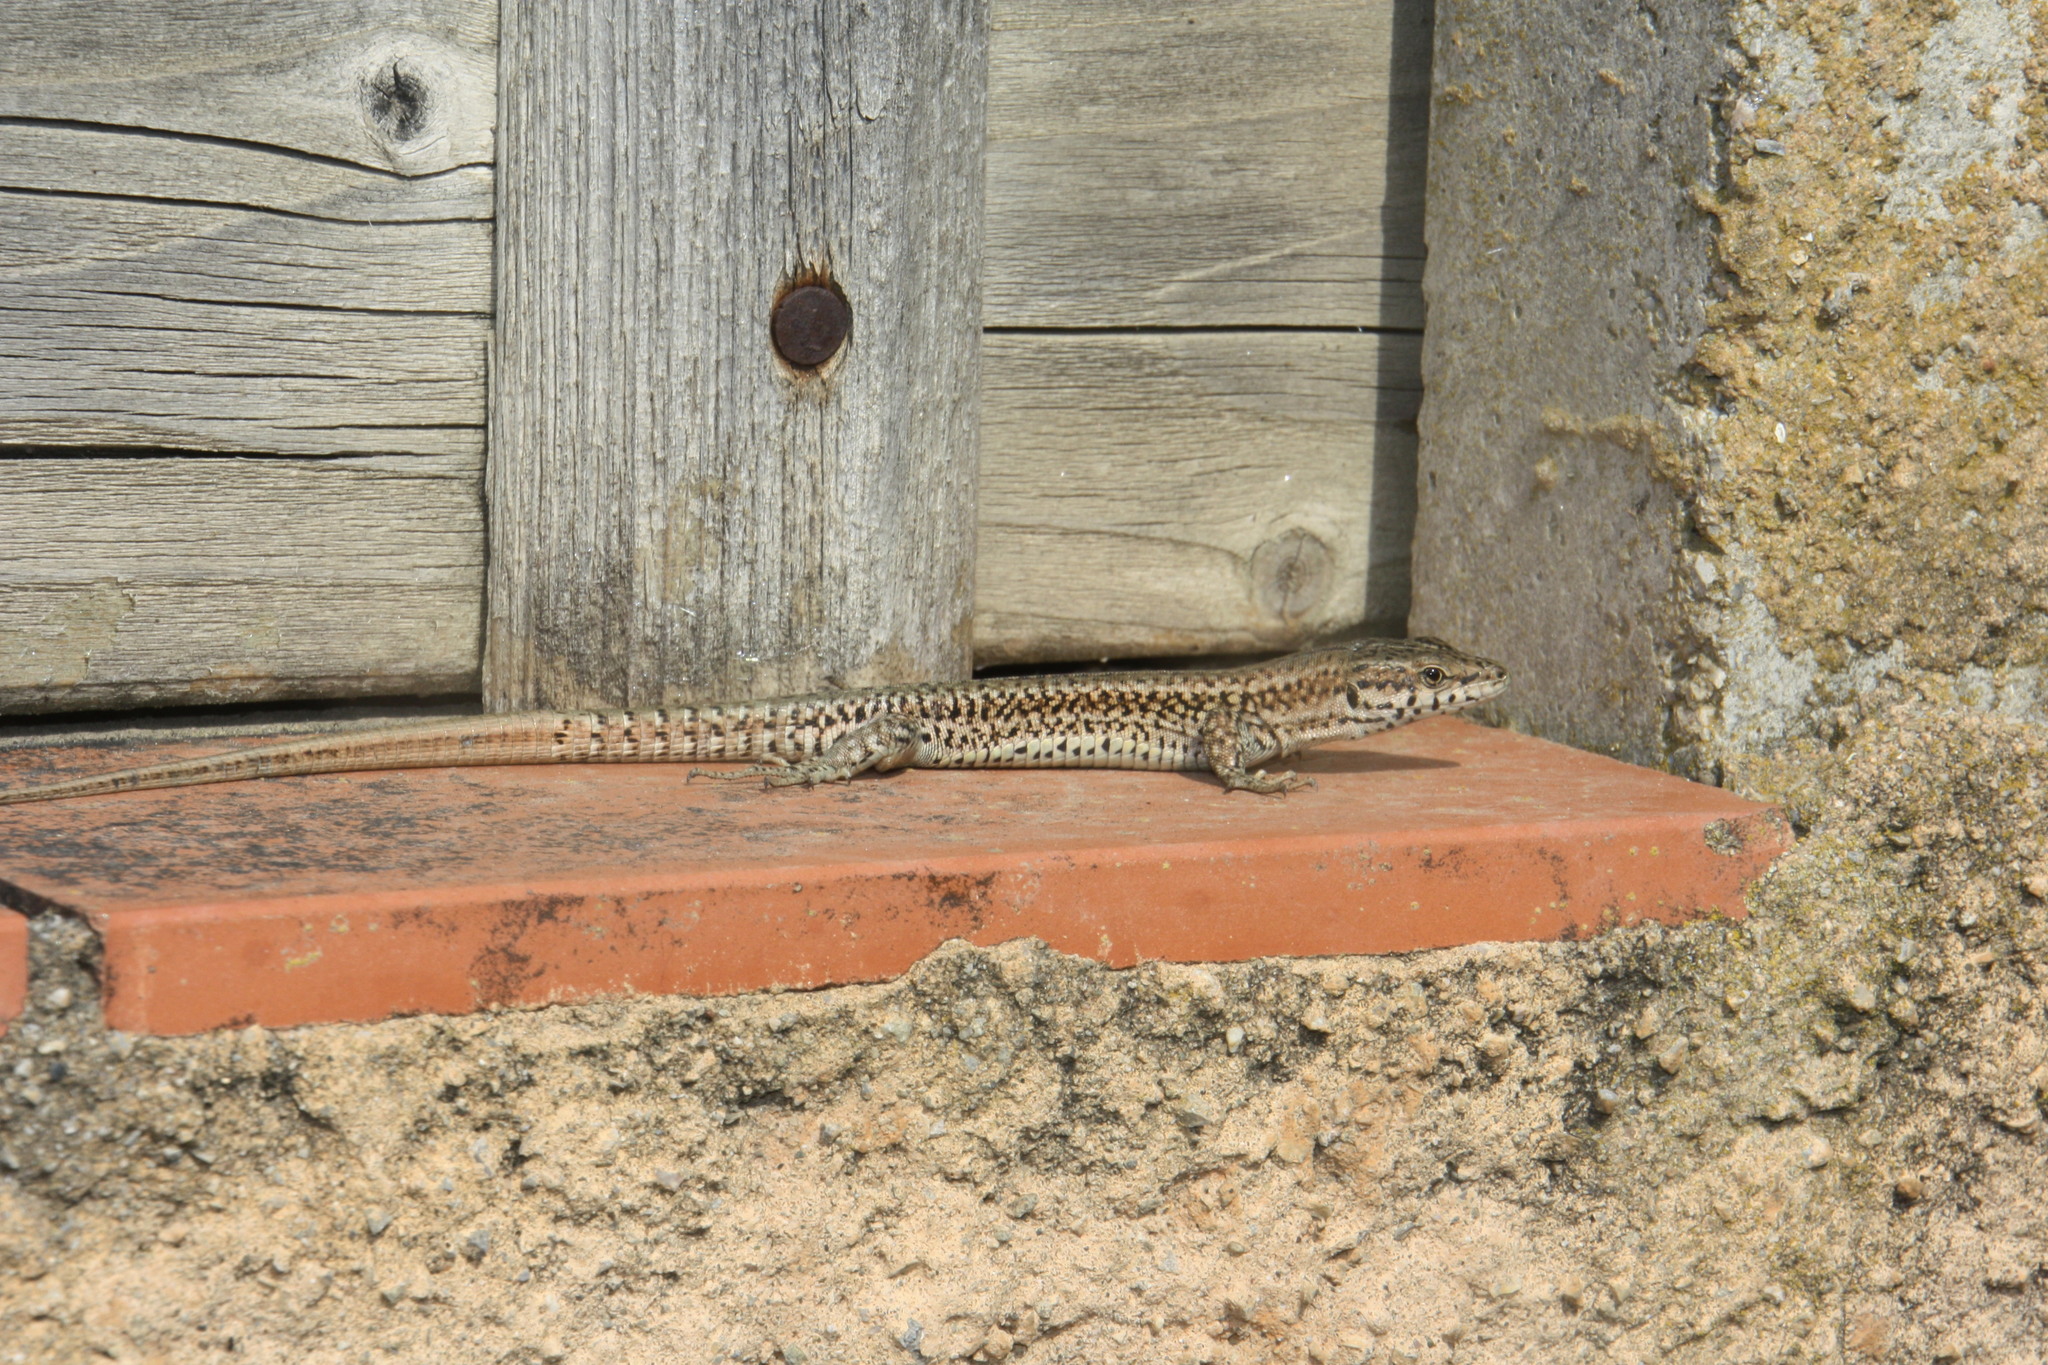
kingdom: Animalia
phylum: Chordata
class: Squamata
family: Lacertidae
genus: Podarcis
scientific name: Podarcis liolepis
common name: Catalonian wall lizard
